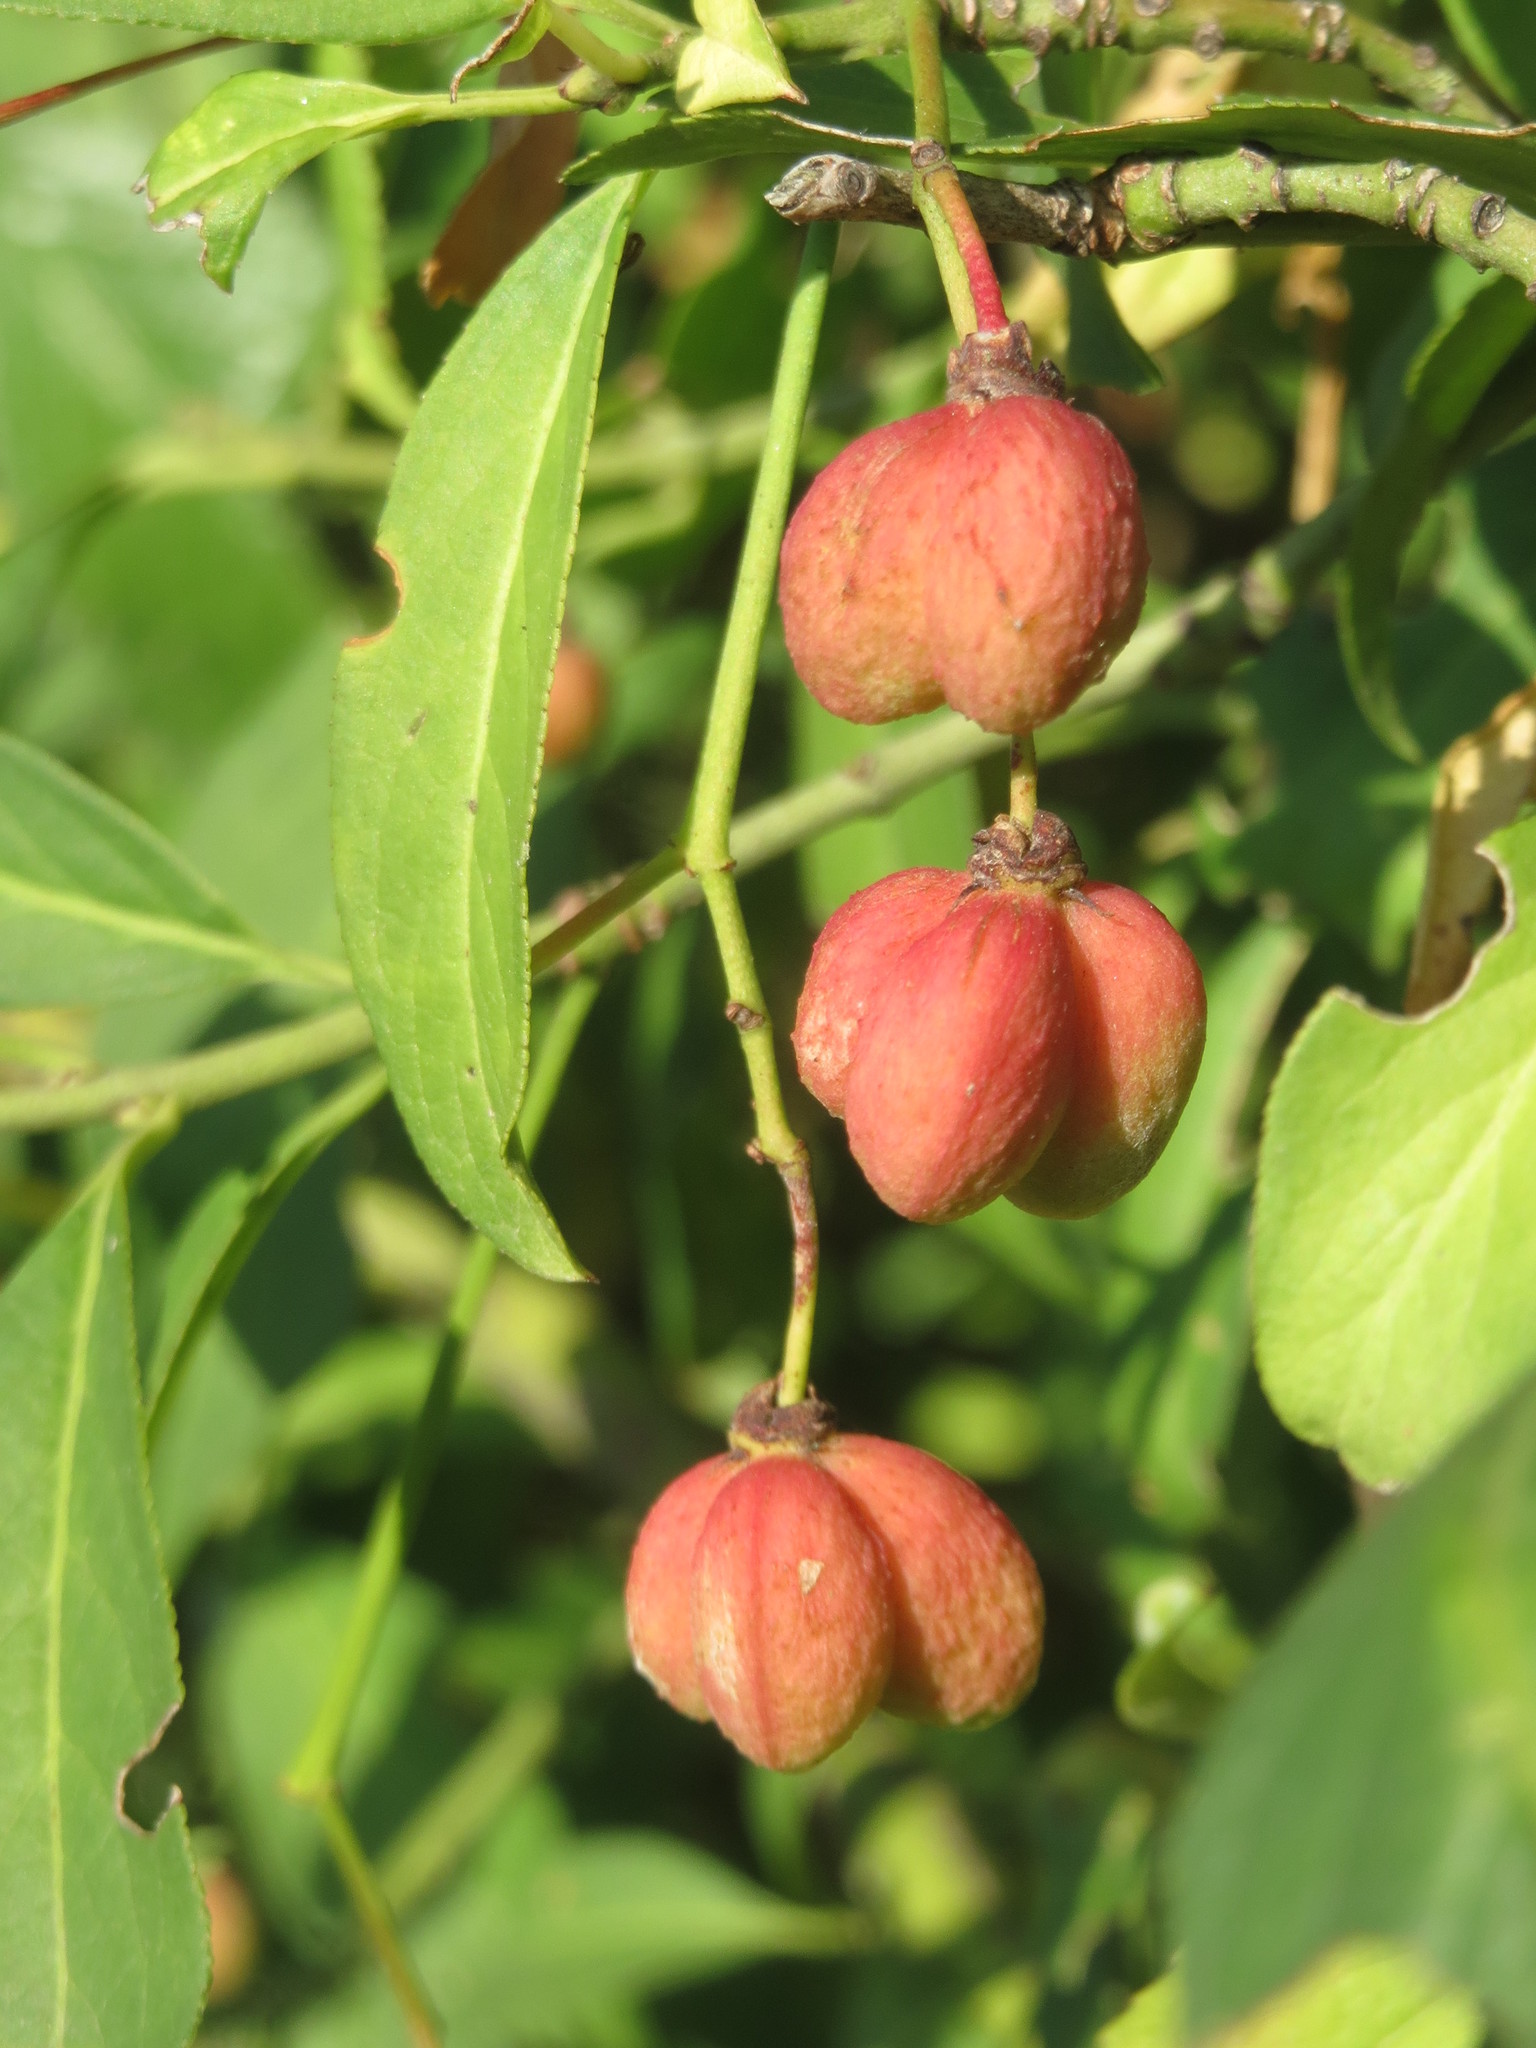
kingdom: Plantae
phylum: Tracheophyta
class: Magnoliopsida
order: Celastrales
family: Celastraceae
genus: Euonymus
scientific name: Euonymus europaeus
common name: Spindle
